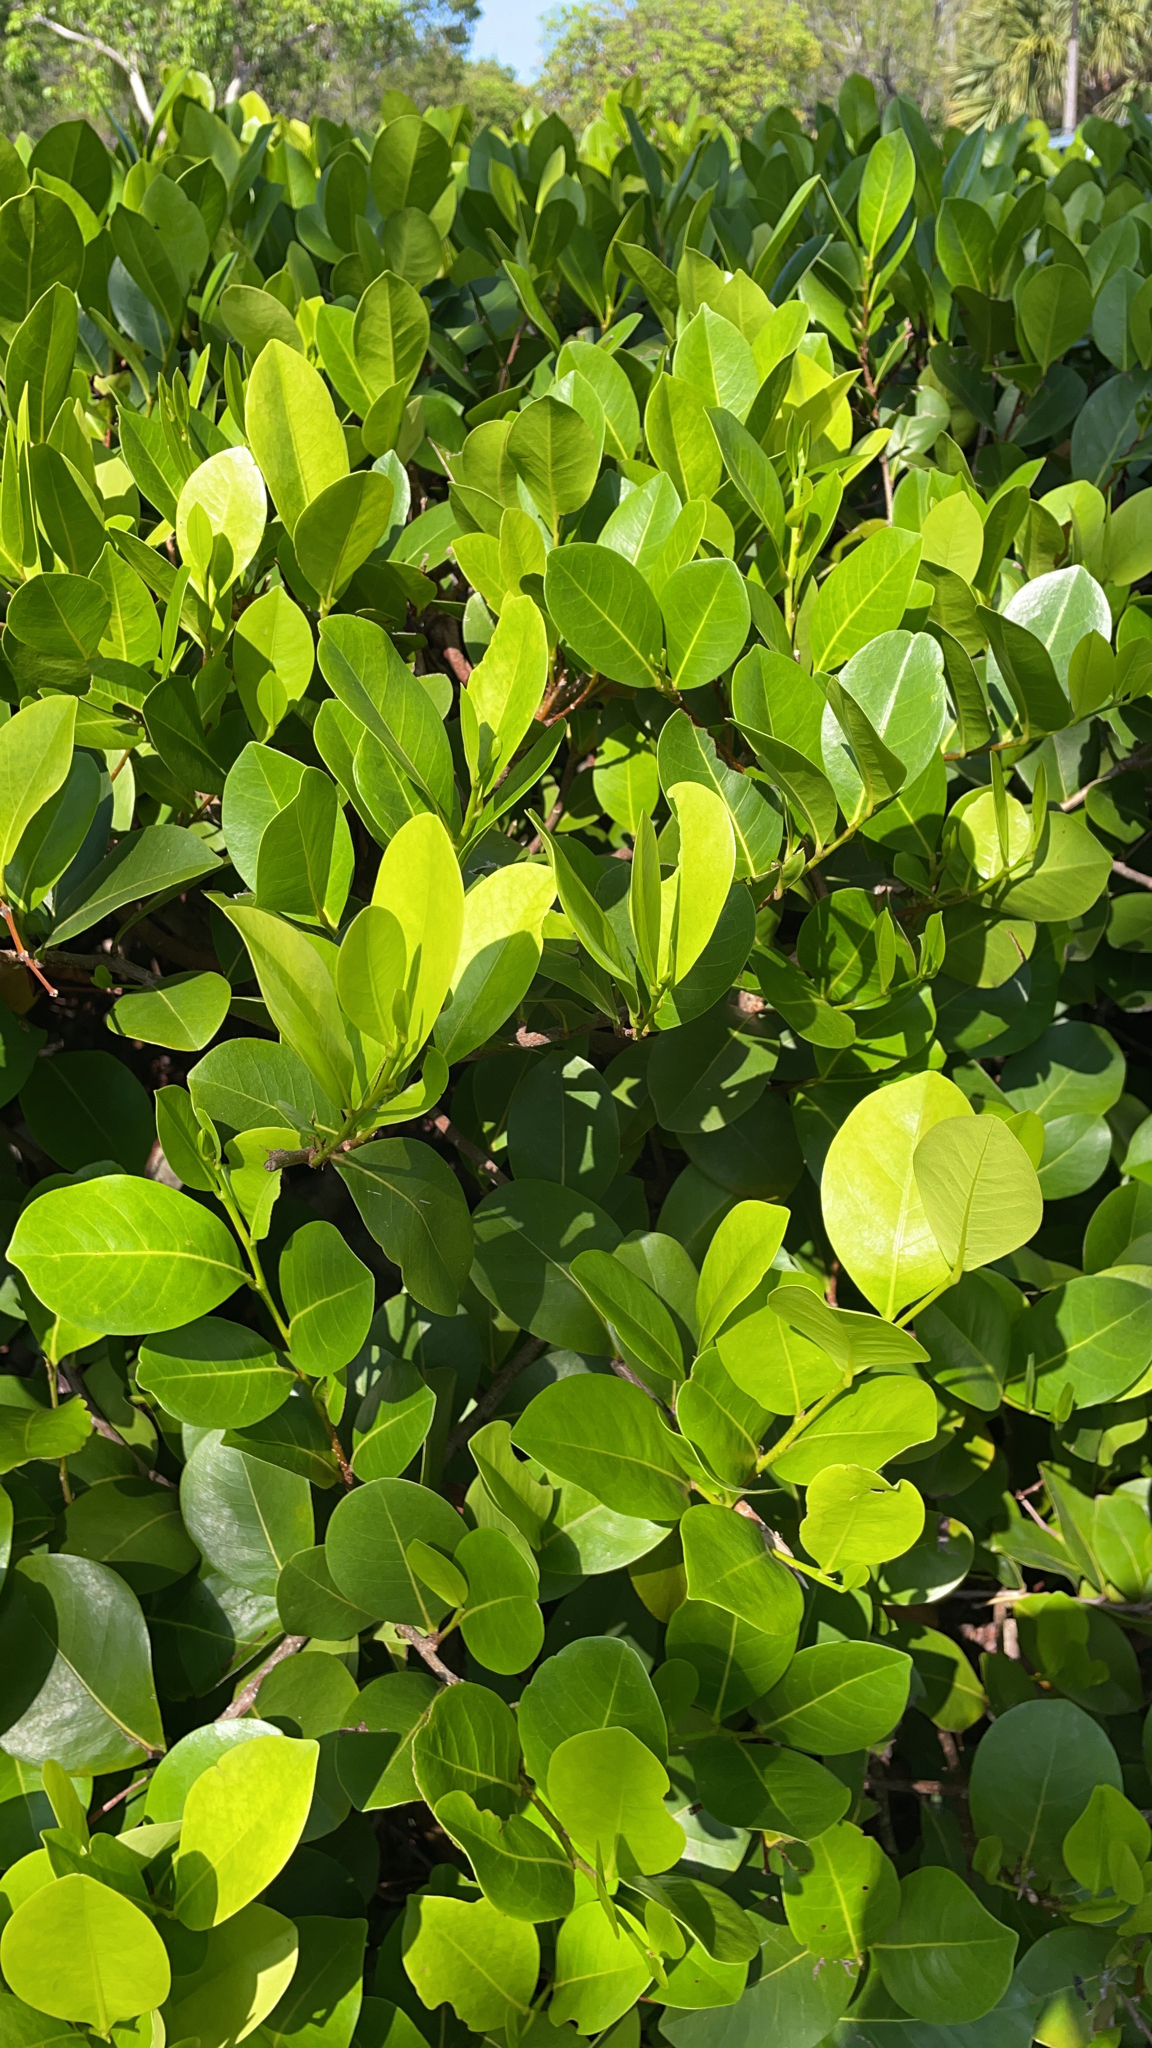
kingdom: Plantae
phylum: Tracheophyta
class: Magnoliopsida
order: Malpighiales
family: Chrysobalanaceae
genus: Chrysobalanus
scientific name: Chrysobalanus icaco
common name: Coco plum
